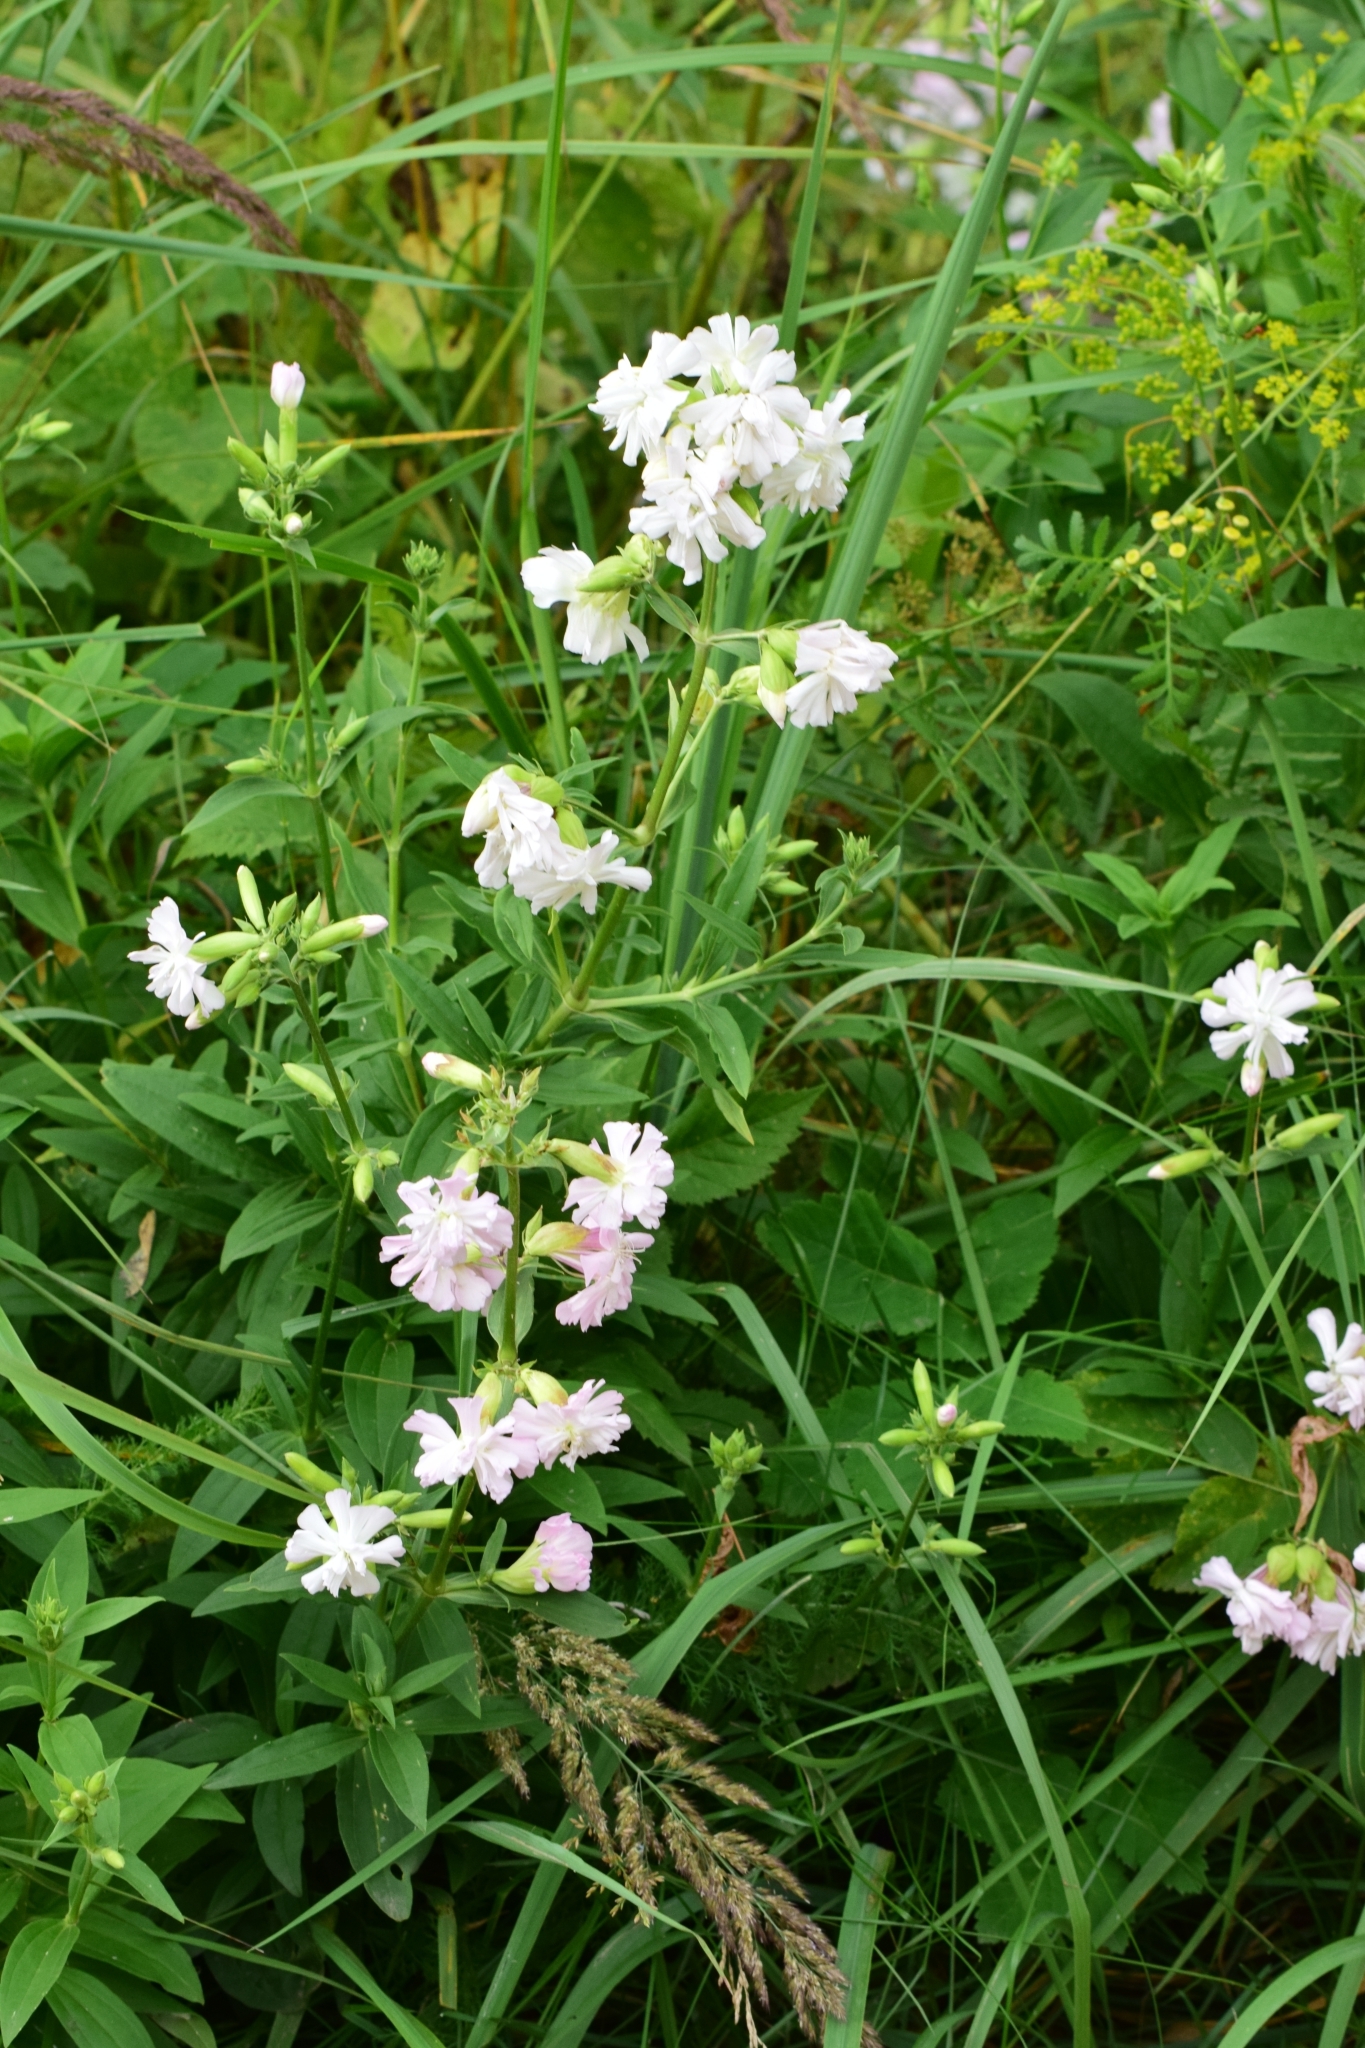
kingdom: Plantae
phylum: Tracheophyta
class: Magnoliopsida
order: Caryophyllales
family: Caryophyllaceae
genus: Saponaria
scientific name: Saponaria officinalis
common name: Soapwort
